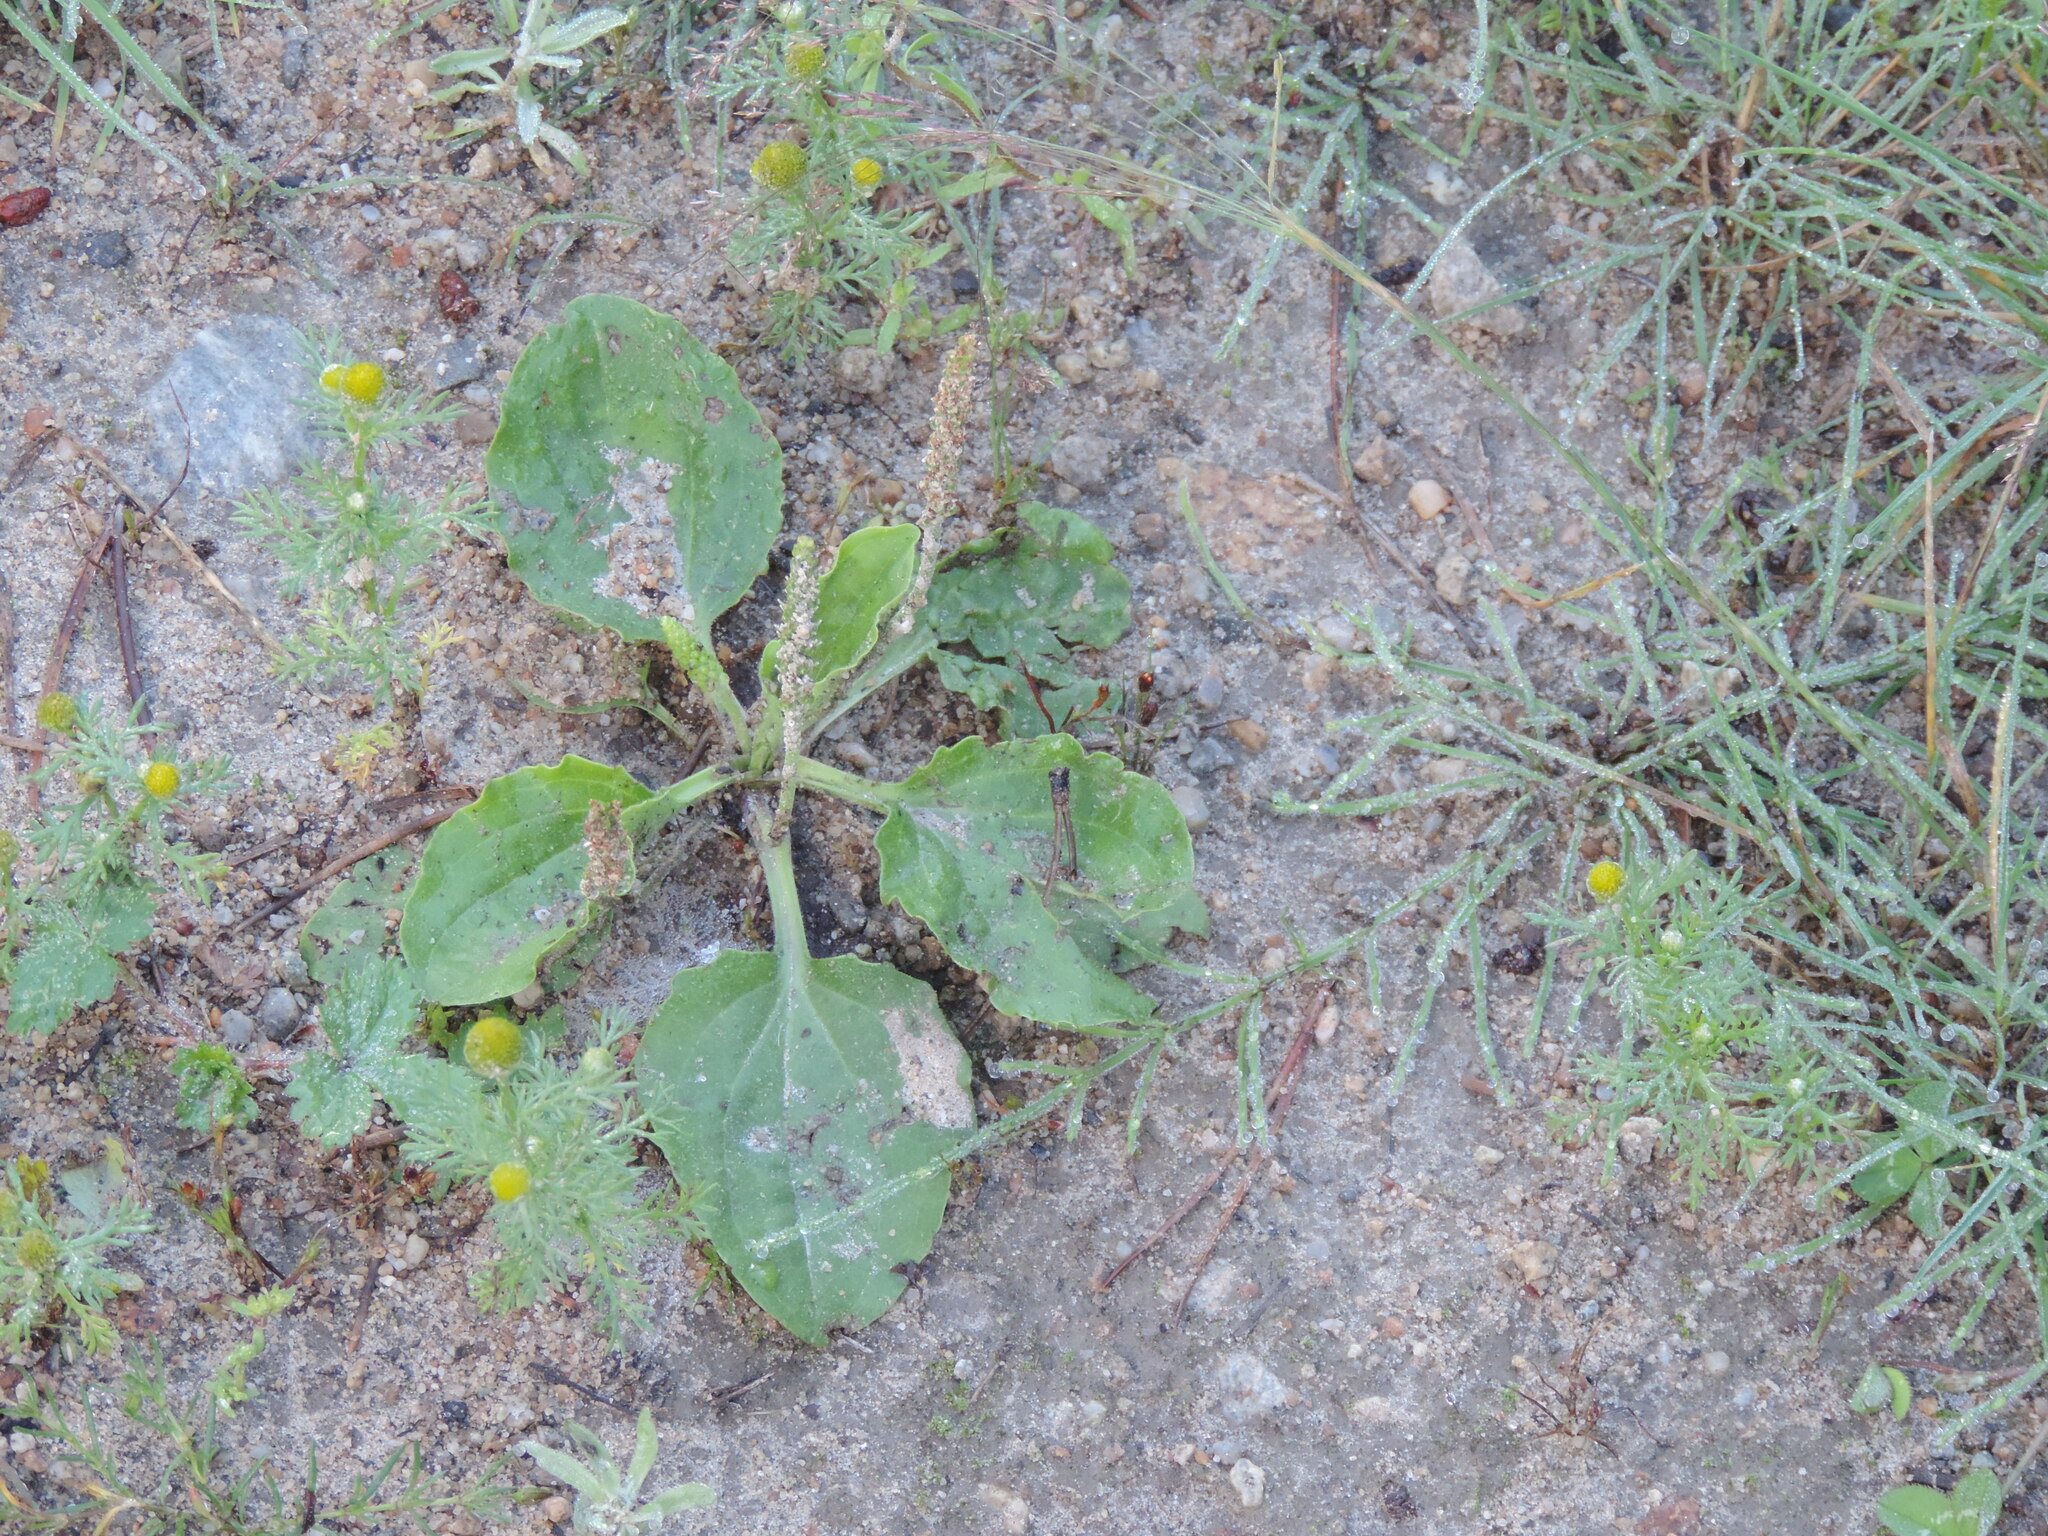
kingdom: Plantae
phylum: Tracheophyta
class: Magnoliopsida
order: Lamiales
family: Plantaginaceae
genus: Plantago
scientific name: Plantago major
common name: Common plantain
